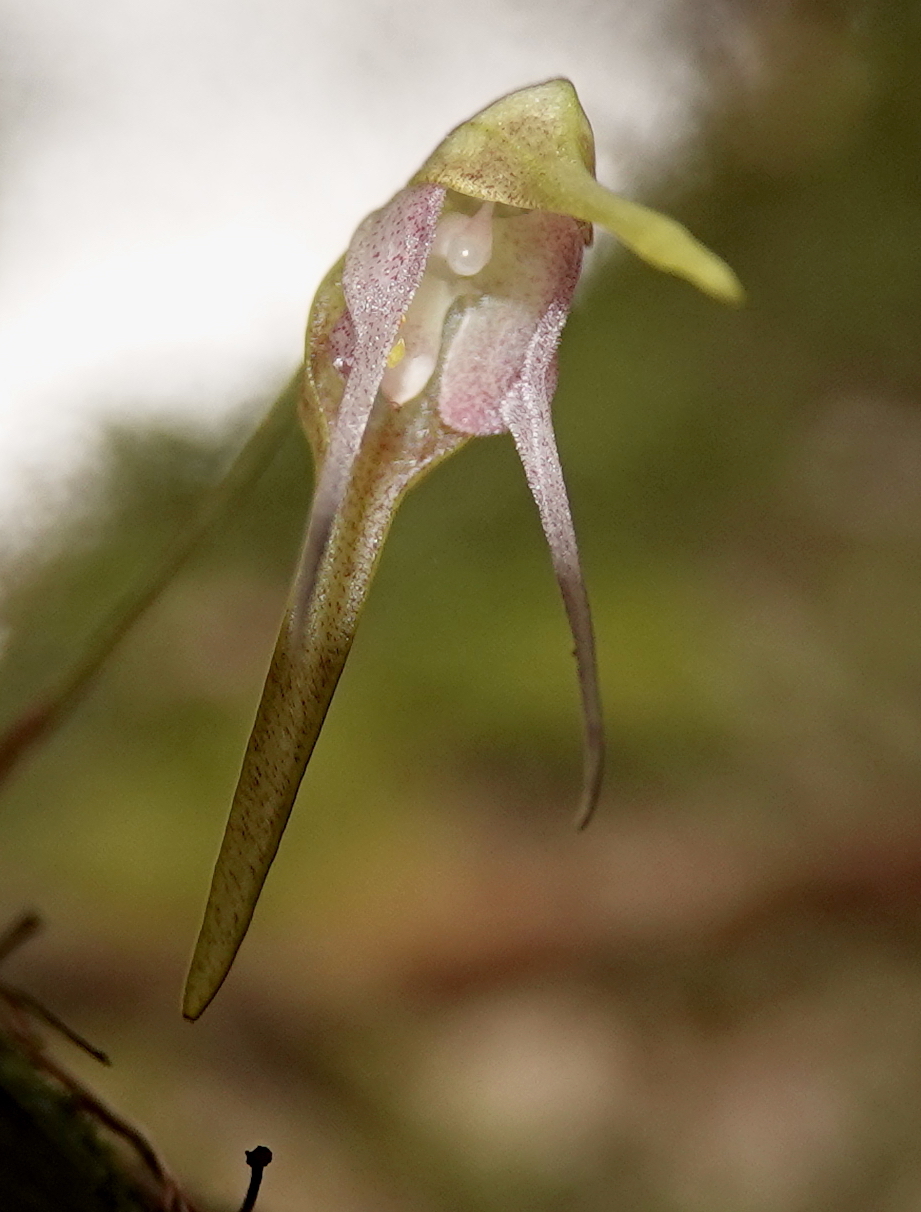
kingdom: Plantae
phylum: Tracheophyta
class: Liliopsida
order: Asparagales
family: Orchidaceae
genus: Pleurothallis
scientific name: Pleurothallis tetragona
